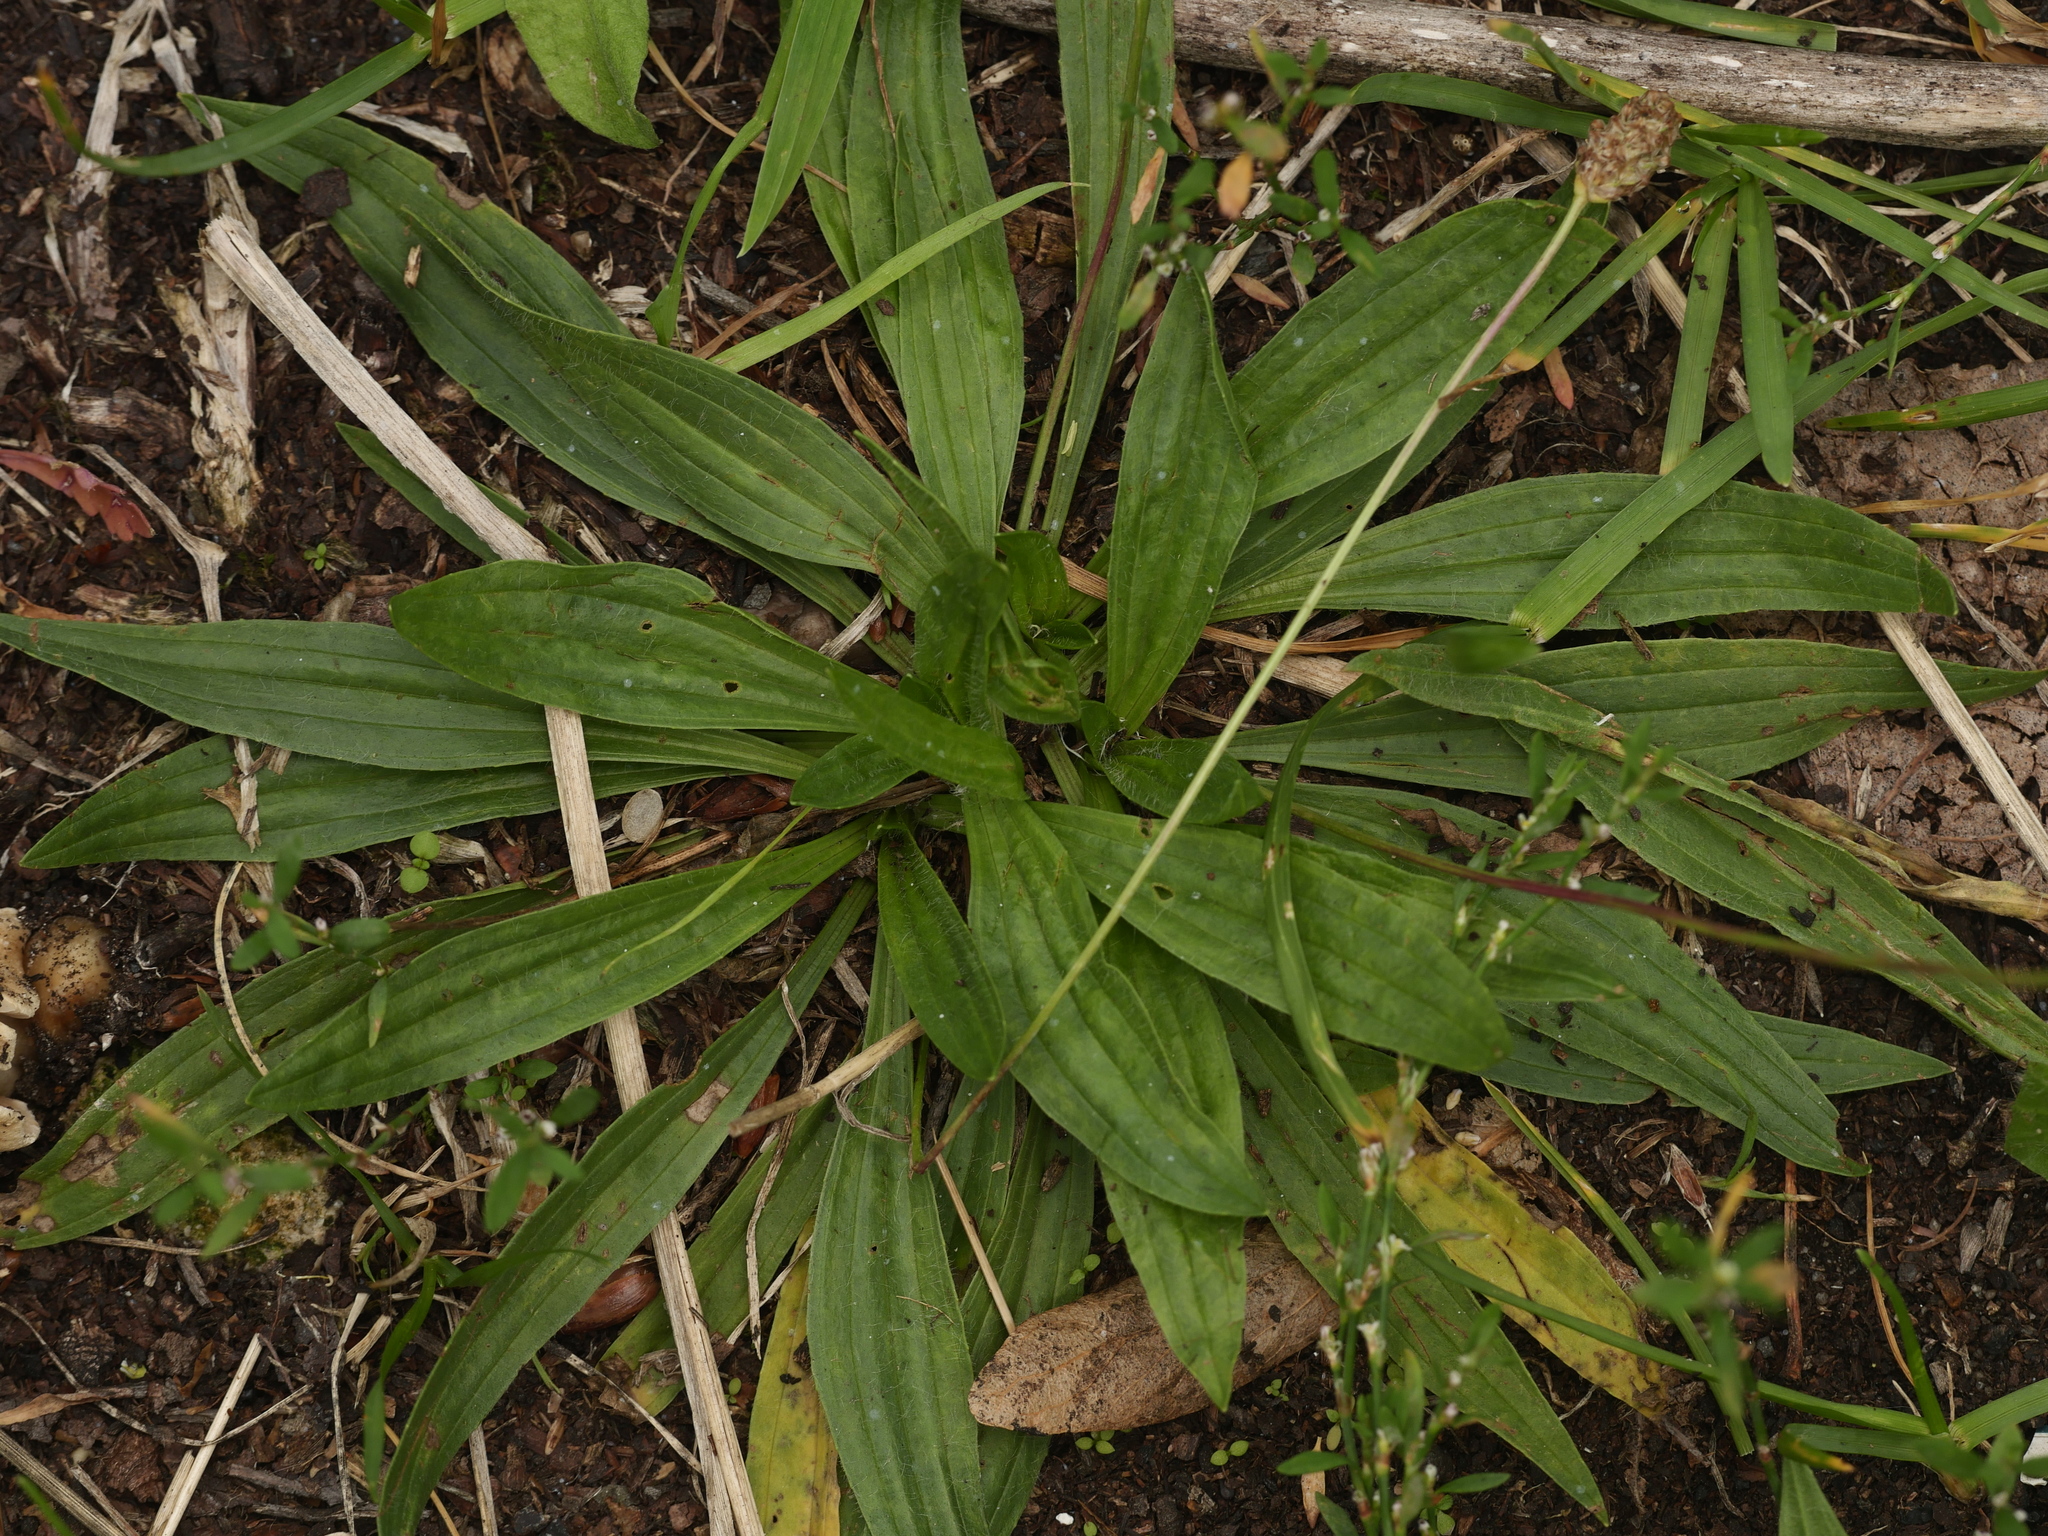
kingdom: Plantae
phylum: Tracheophyta
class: Magnoliopsida
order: Lamiales
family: Plantaginaceae
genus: Plantago
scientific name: Plantago lanceolata
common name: Ribwort plantain
